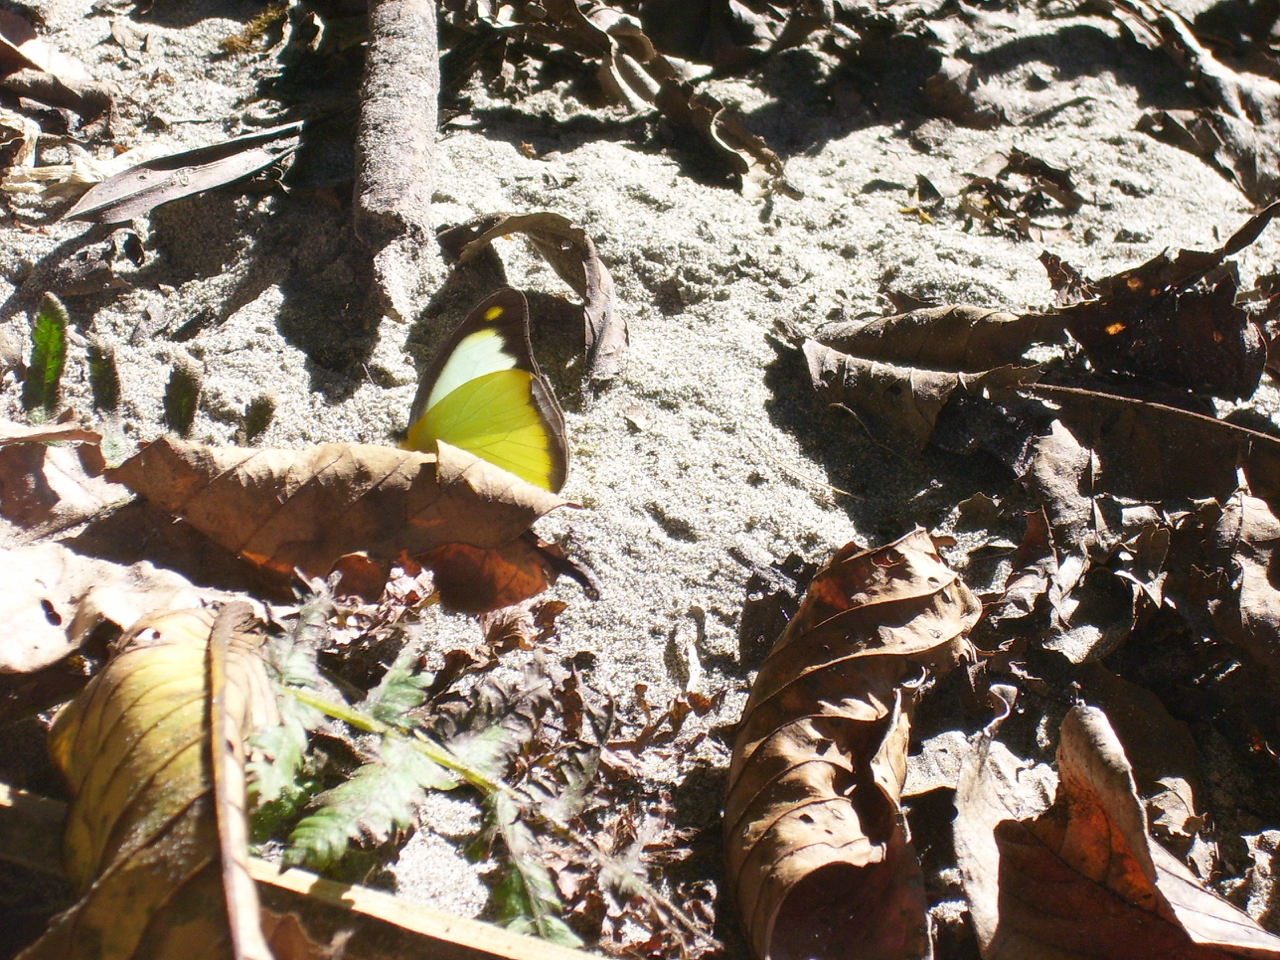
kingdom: Animalia
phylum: Arthropoda
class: Insecta
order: Lepidoptera
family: Pieridae
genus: Appias
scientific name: Appias lyncida
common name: Chocolate albatross
